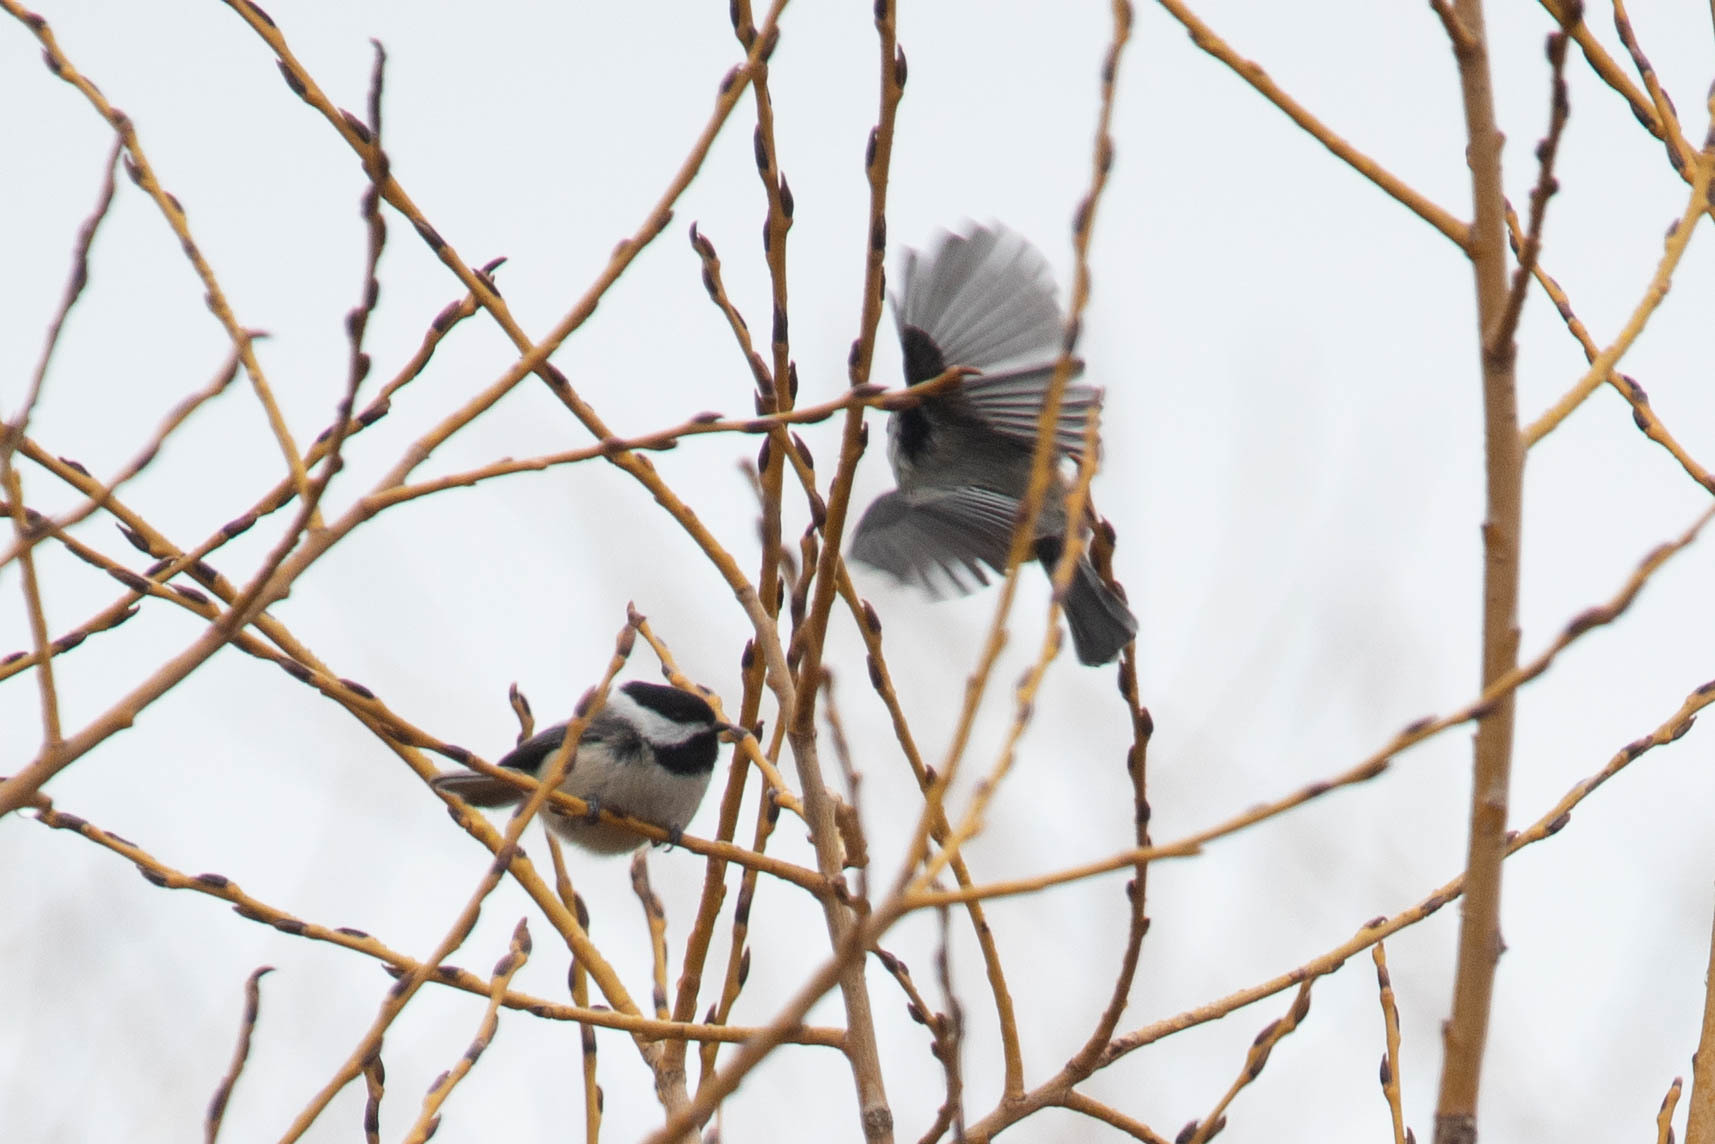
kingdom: Animalia
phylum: Chordata
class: Aves
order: Passeriformes
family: Paridae
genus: Poecile
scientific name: Poecile atricapillus
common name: Black-capped chickadee
